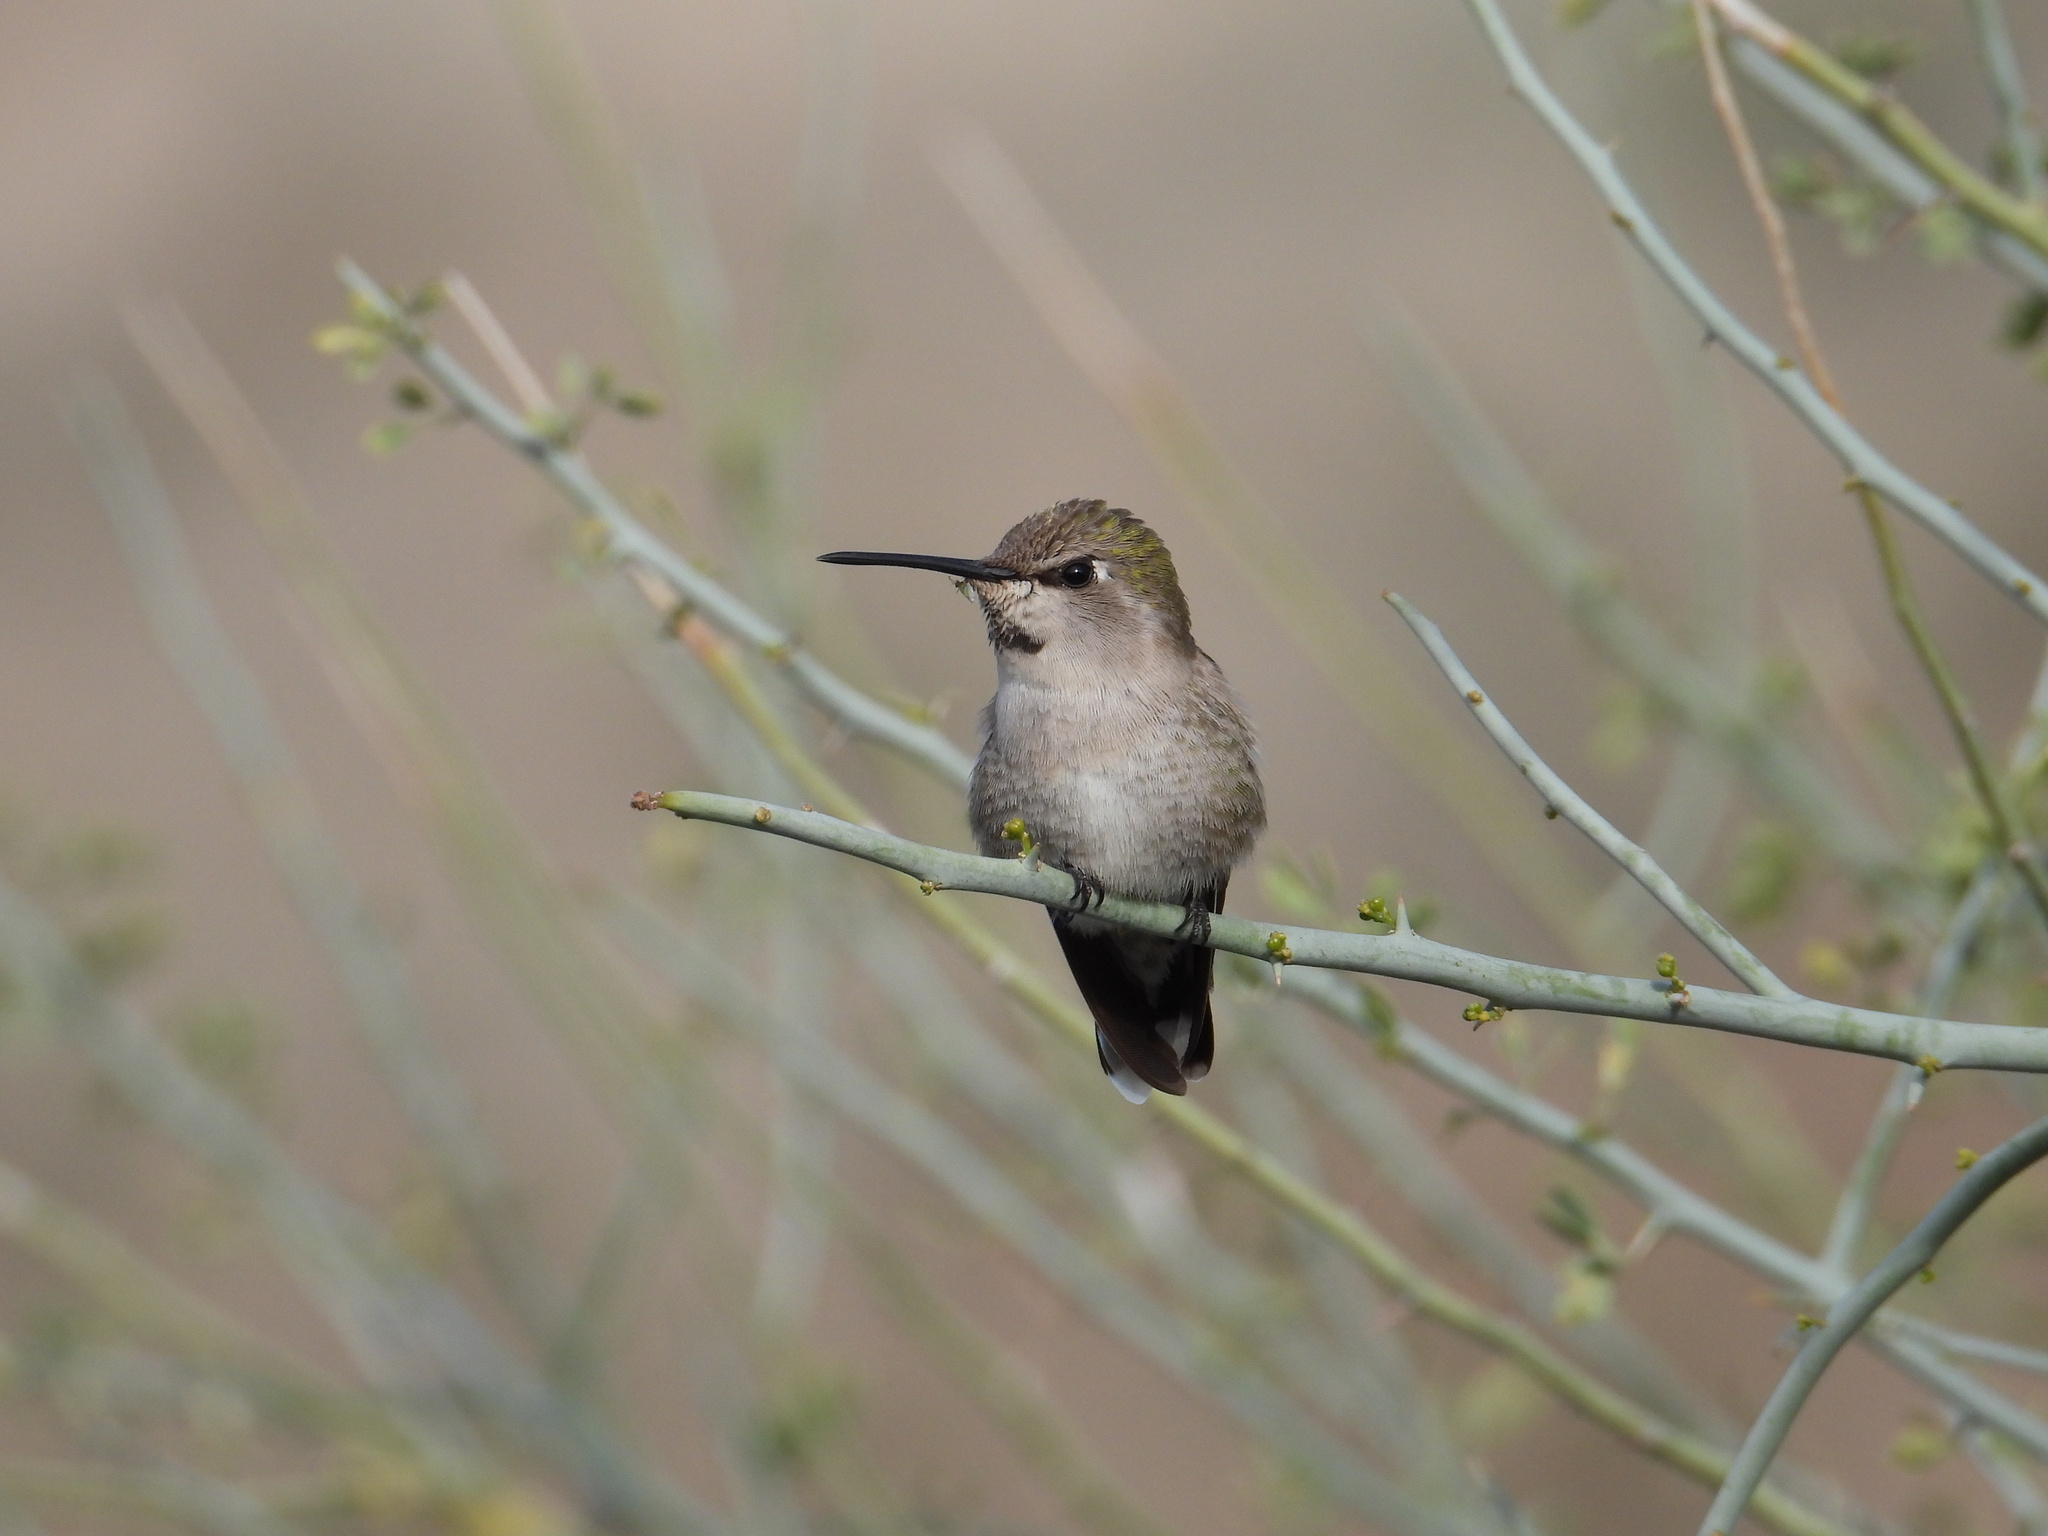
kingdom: Animalia
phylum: Chordata
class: Aves
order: Apodiformes
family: Trochilidae
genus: Calypte
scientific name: Calypte costae
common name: Costa's hummingbird
